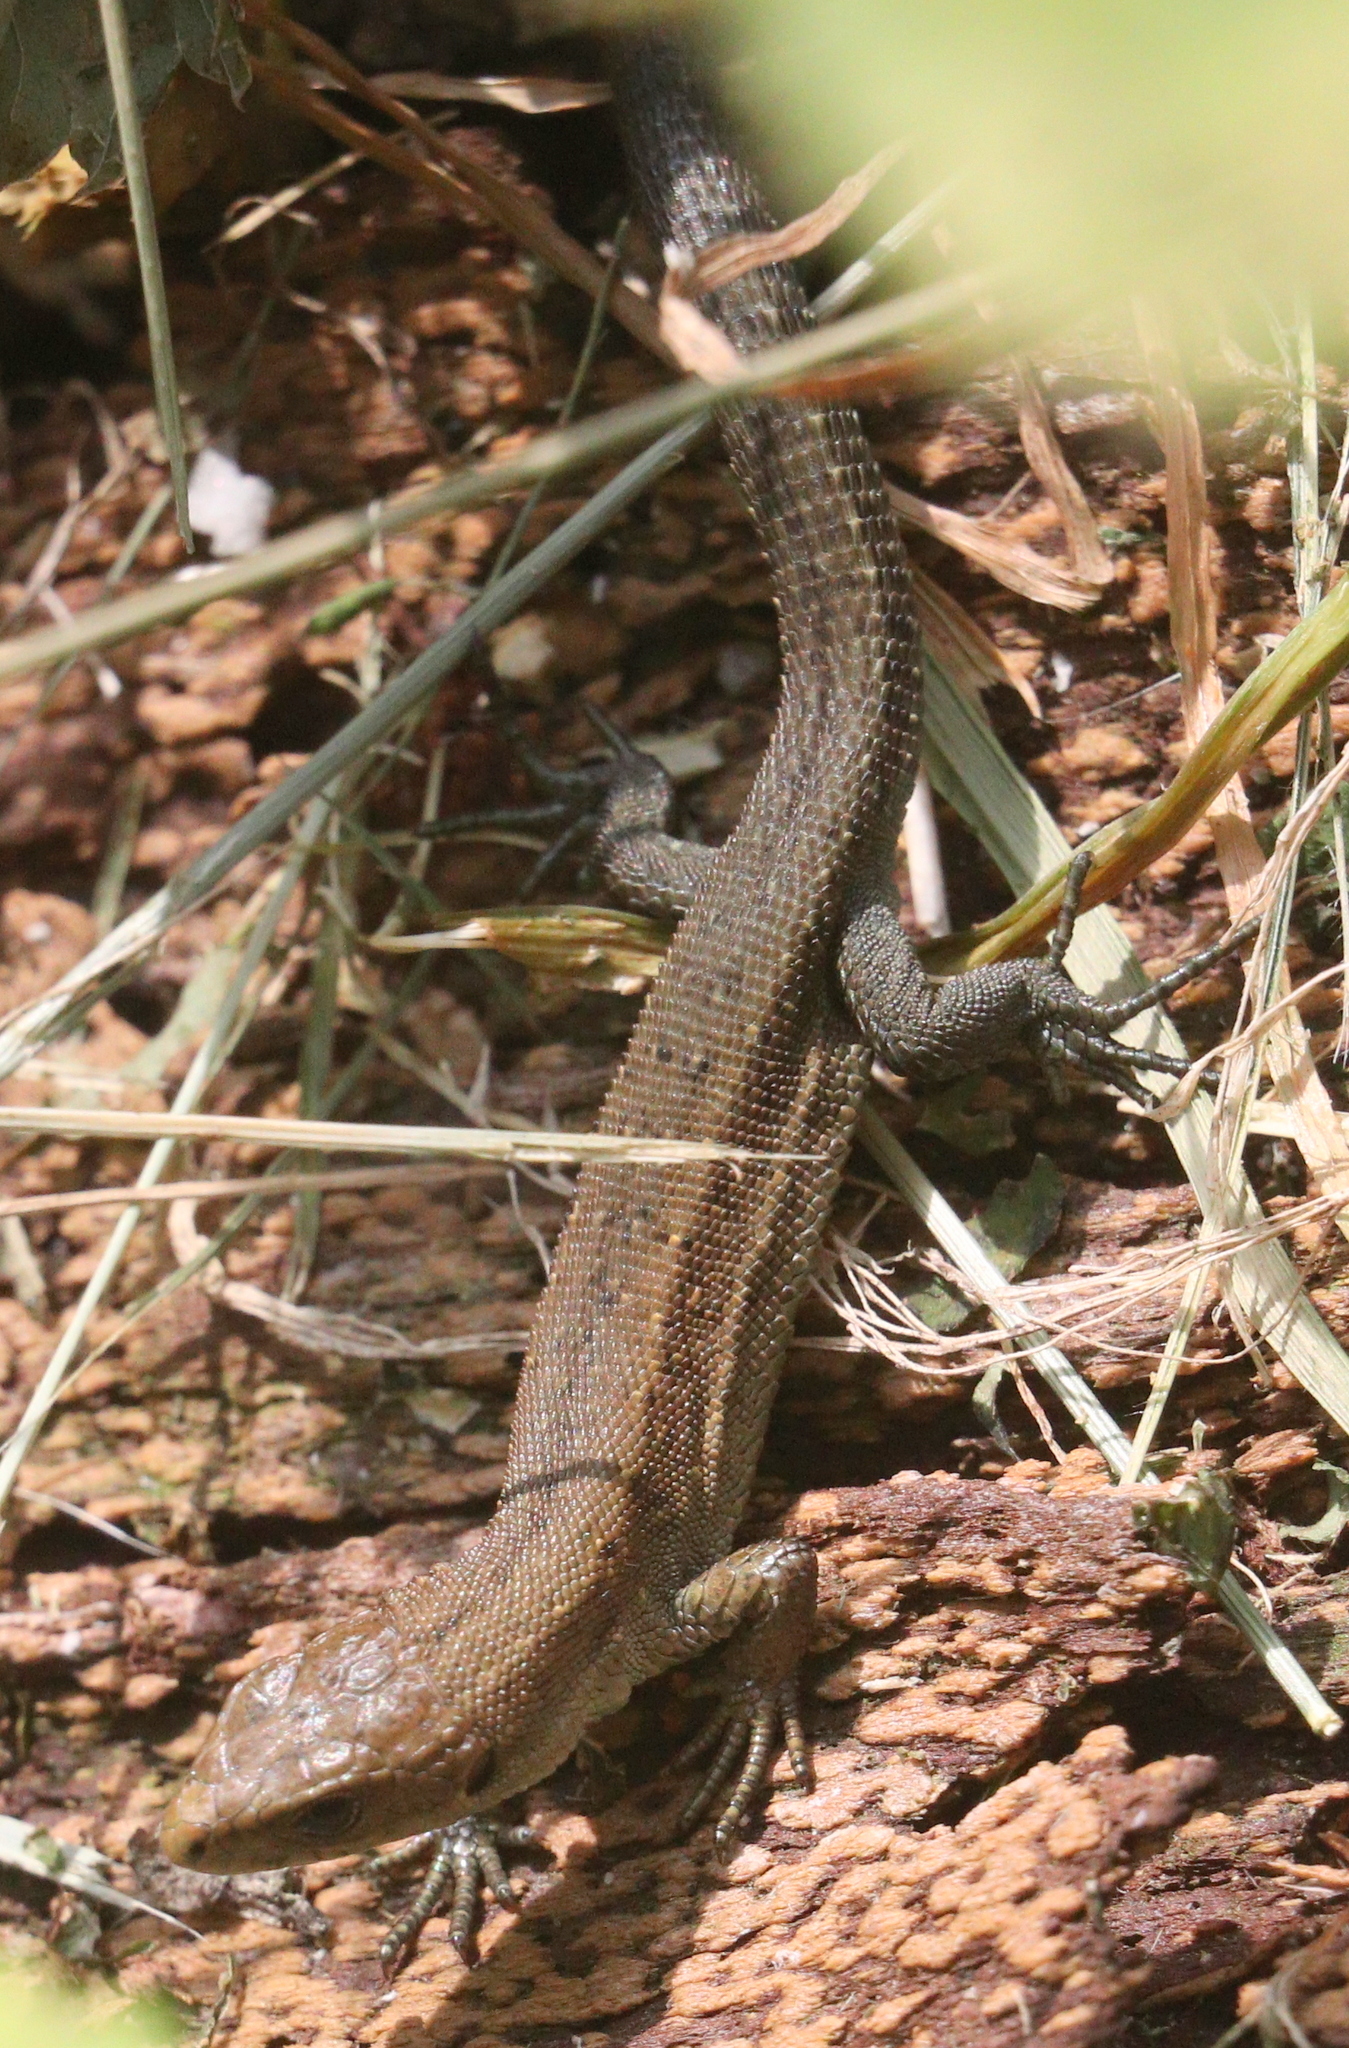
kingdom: Animalia
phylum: Chordata
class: Squamata
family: Lacertidae
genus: Zootoca
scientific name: Zootoca vivipara
